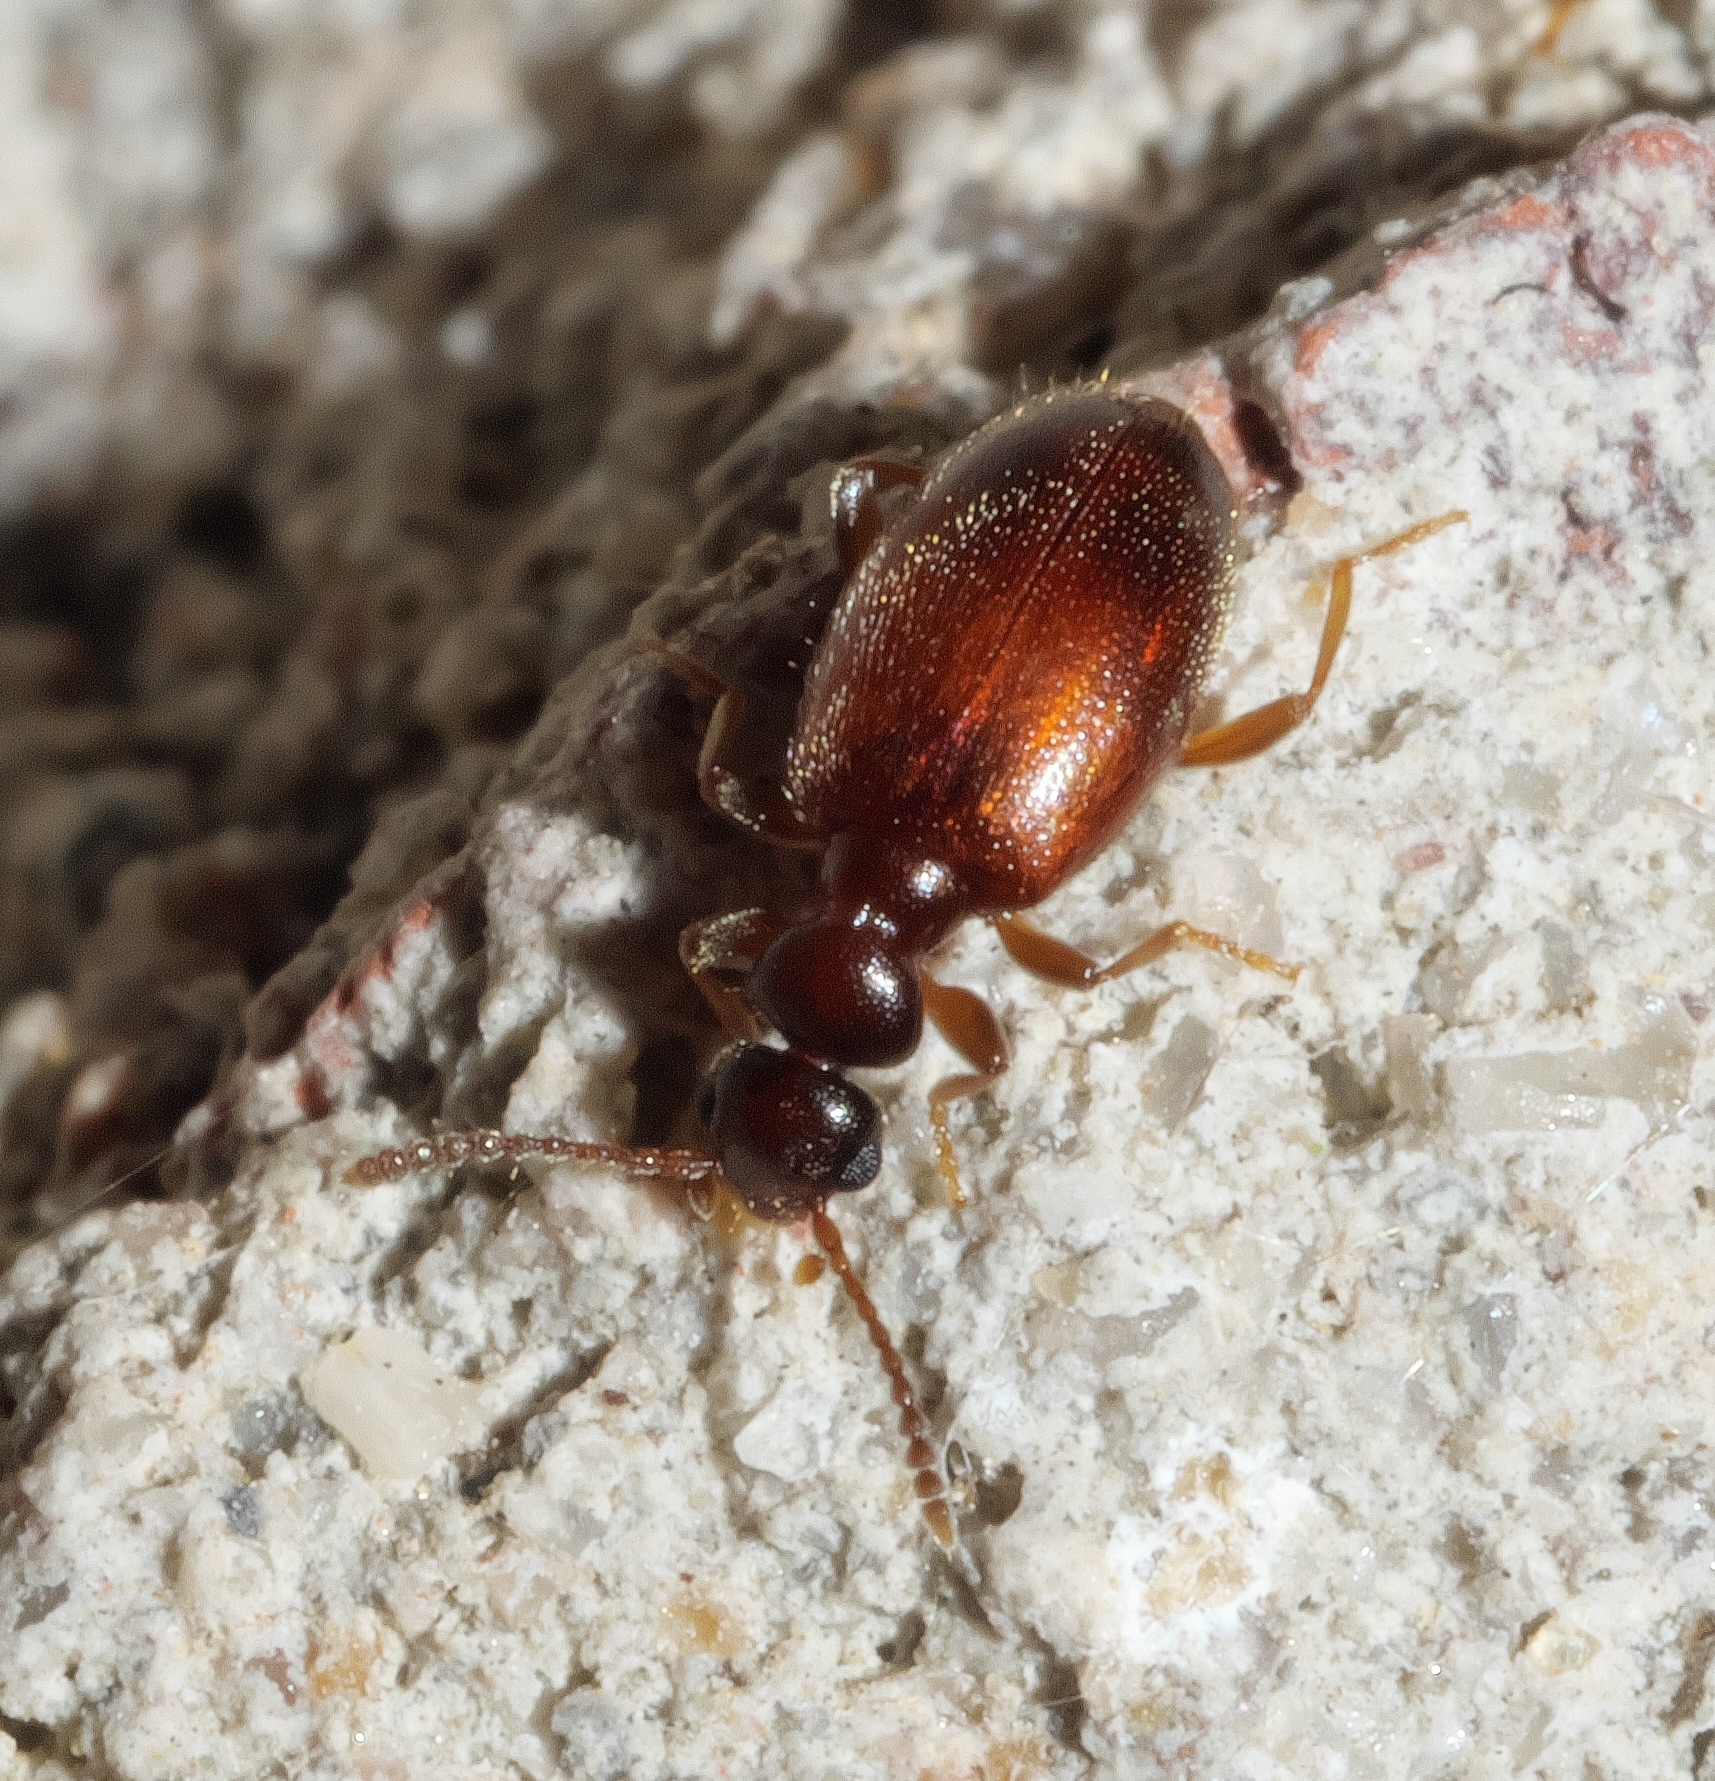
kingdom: Animalia
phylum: Arthropoda
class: Insecta
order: Coleoptera
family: Anthicidae
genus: Tomoderus
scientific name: Tomoderus
